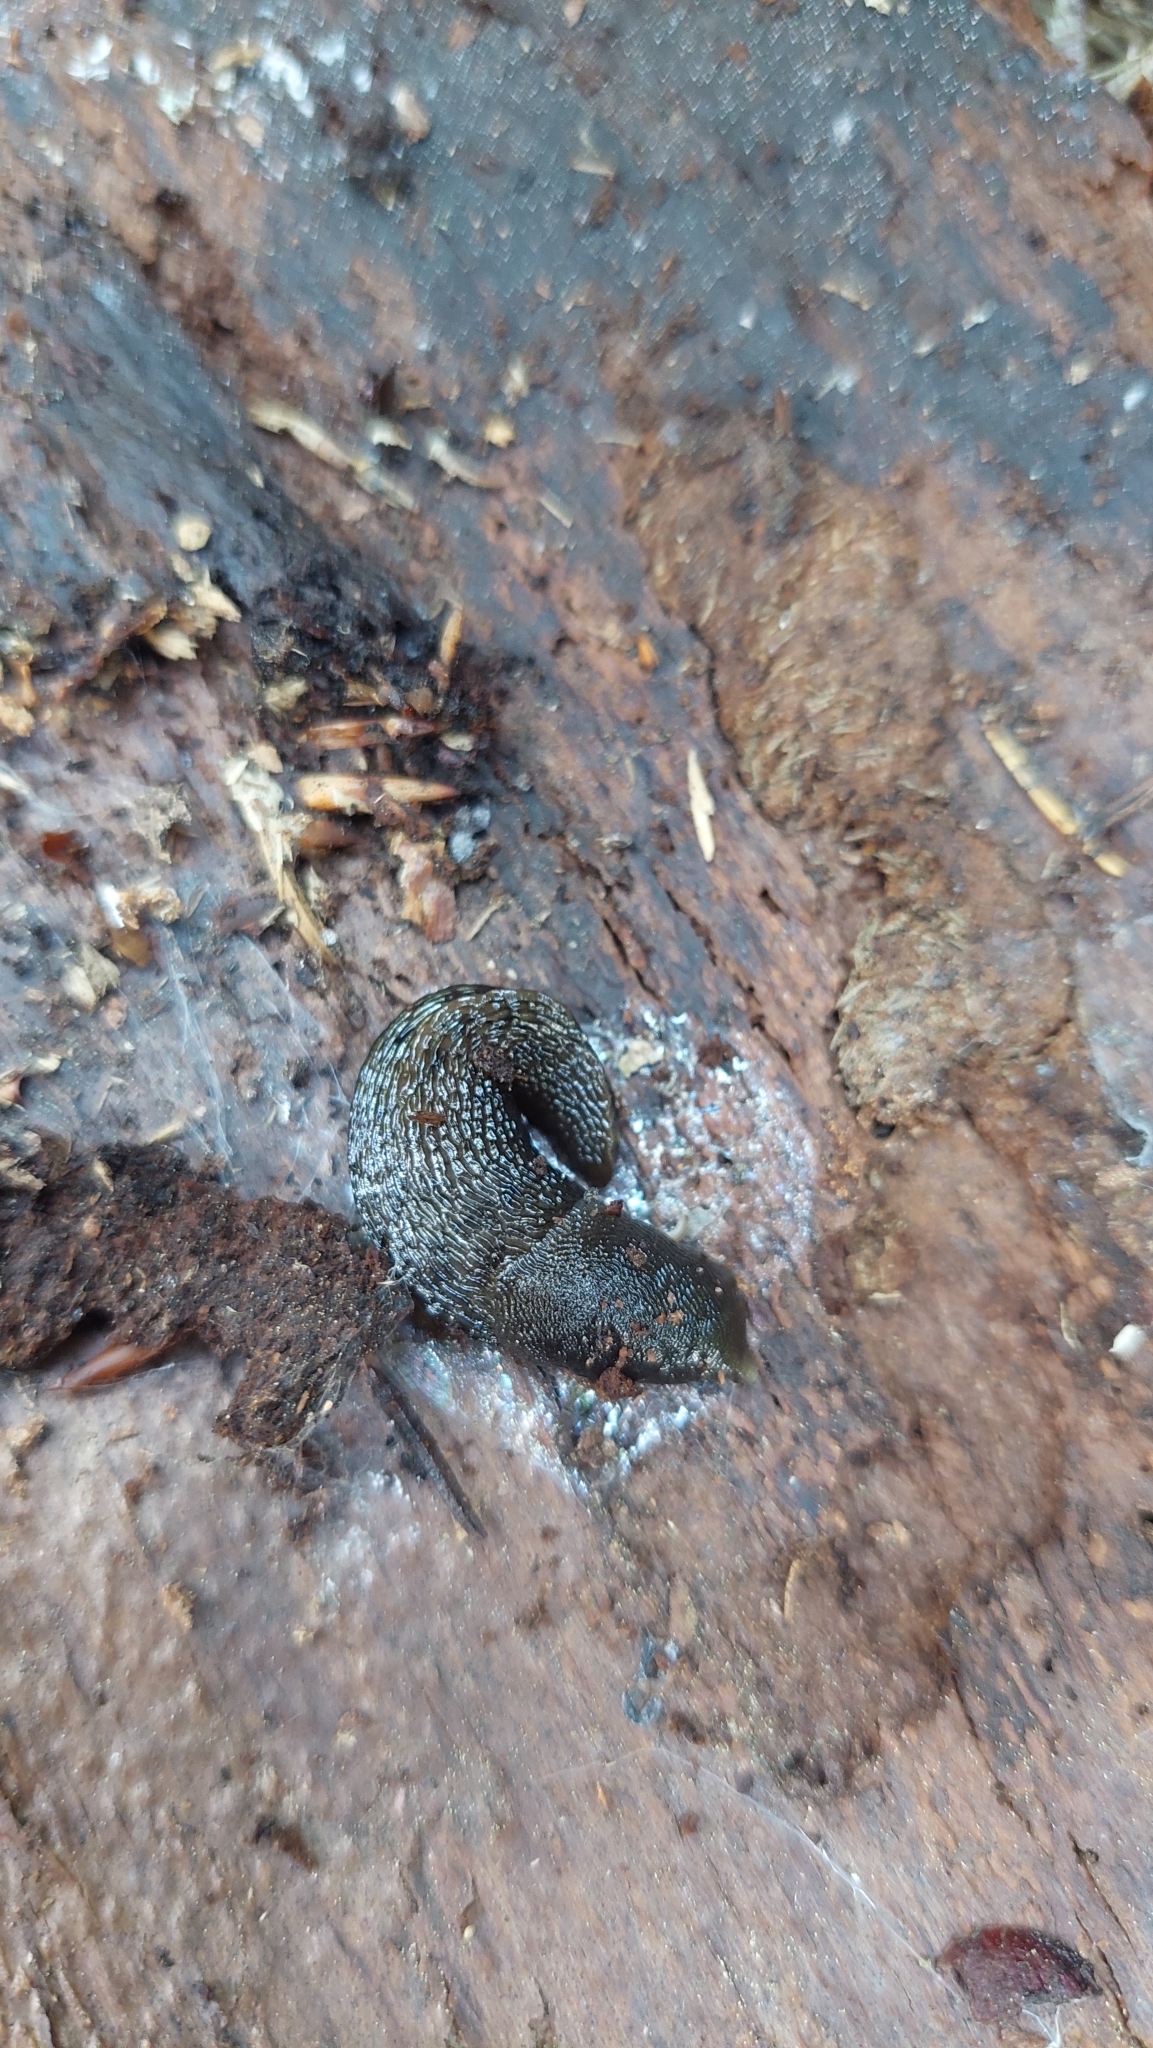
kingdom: Animalia
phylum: Mollusca
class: Gastropoda
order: Stylommatophora
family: Limacidae
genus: Limax
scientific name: Limax cinereoniger
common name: Ash-black slug
